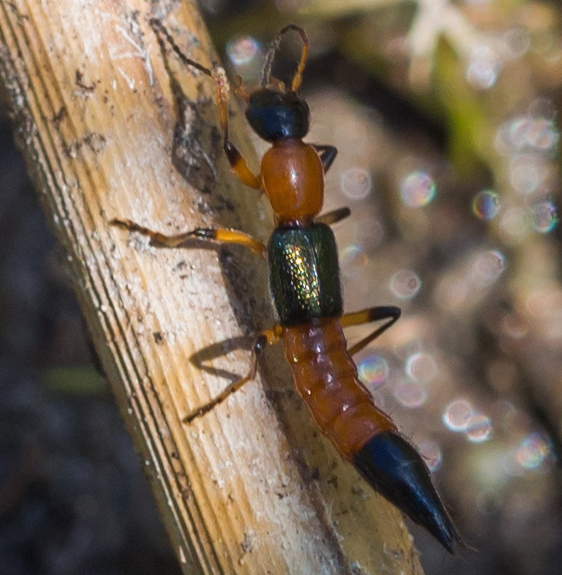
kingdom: Animalia
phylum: Arthropoda
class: Insecta
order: Coleoptera
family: Staphylinidae
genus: Paederus
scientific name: Paederus riparius
